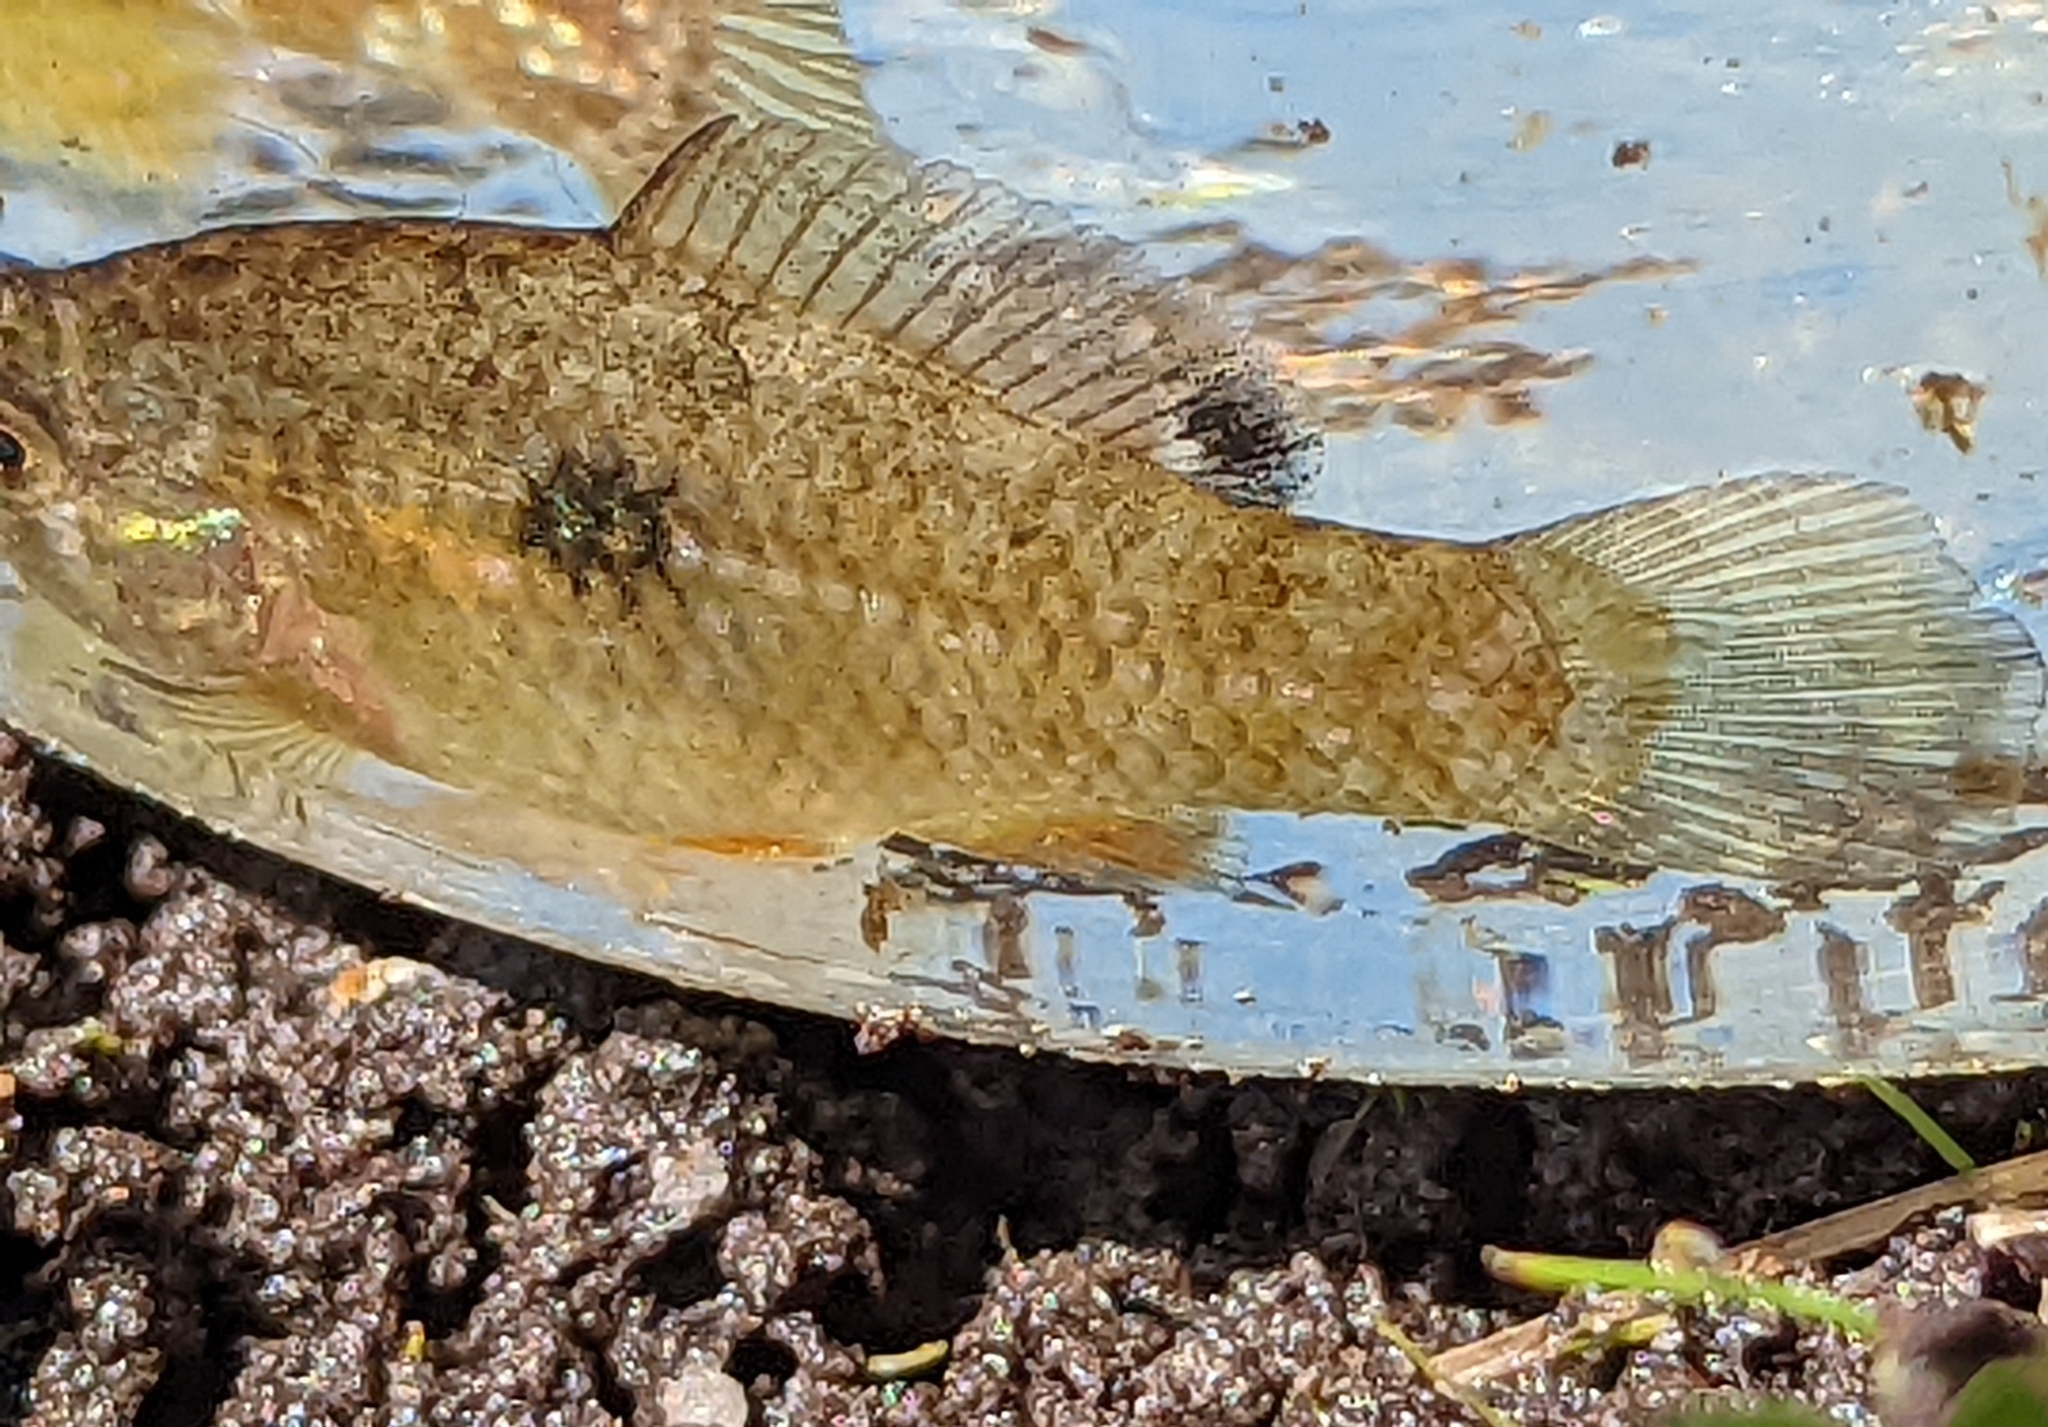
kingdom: Animalia
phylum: Chordata
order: Cyprinodontiformes
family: Cyprinodontidae
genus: Jordanella
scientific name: Jordanella floridae
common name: Flagfish
